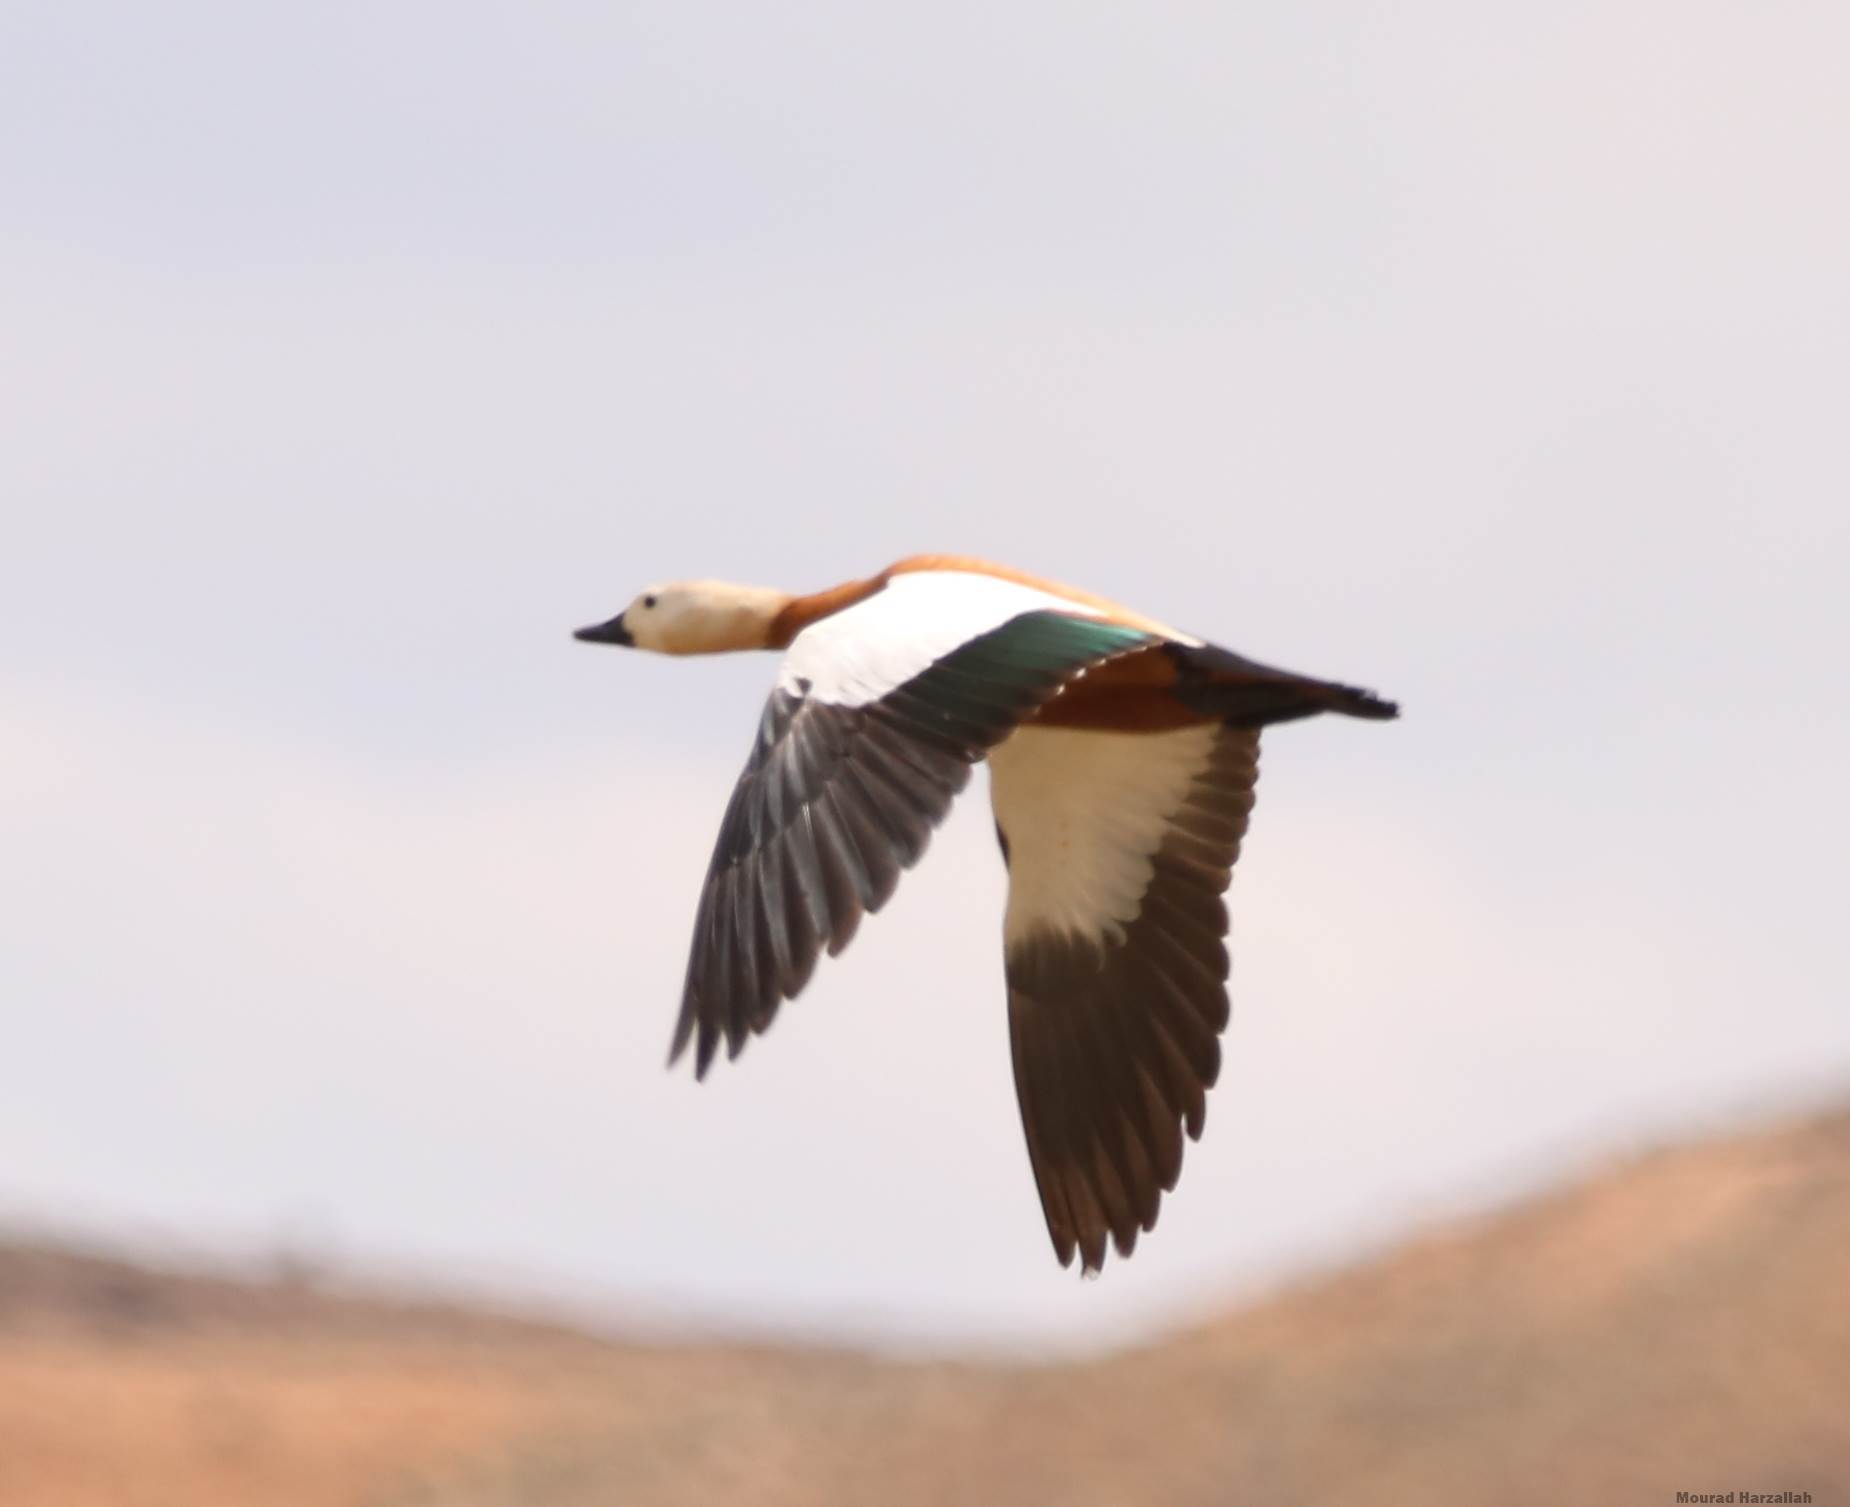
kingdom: Animalia
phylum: Chordata
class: Aves
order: Anseriformes
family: Anatidae
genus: Tadorna
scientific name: Tadorna ferruginea
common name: Ruddy shelduck
